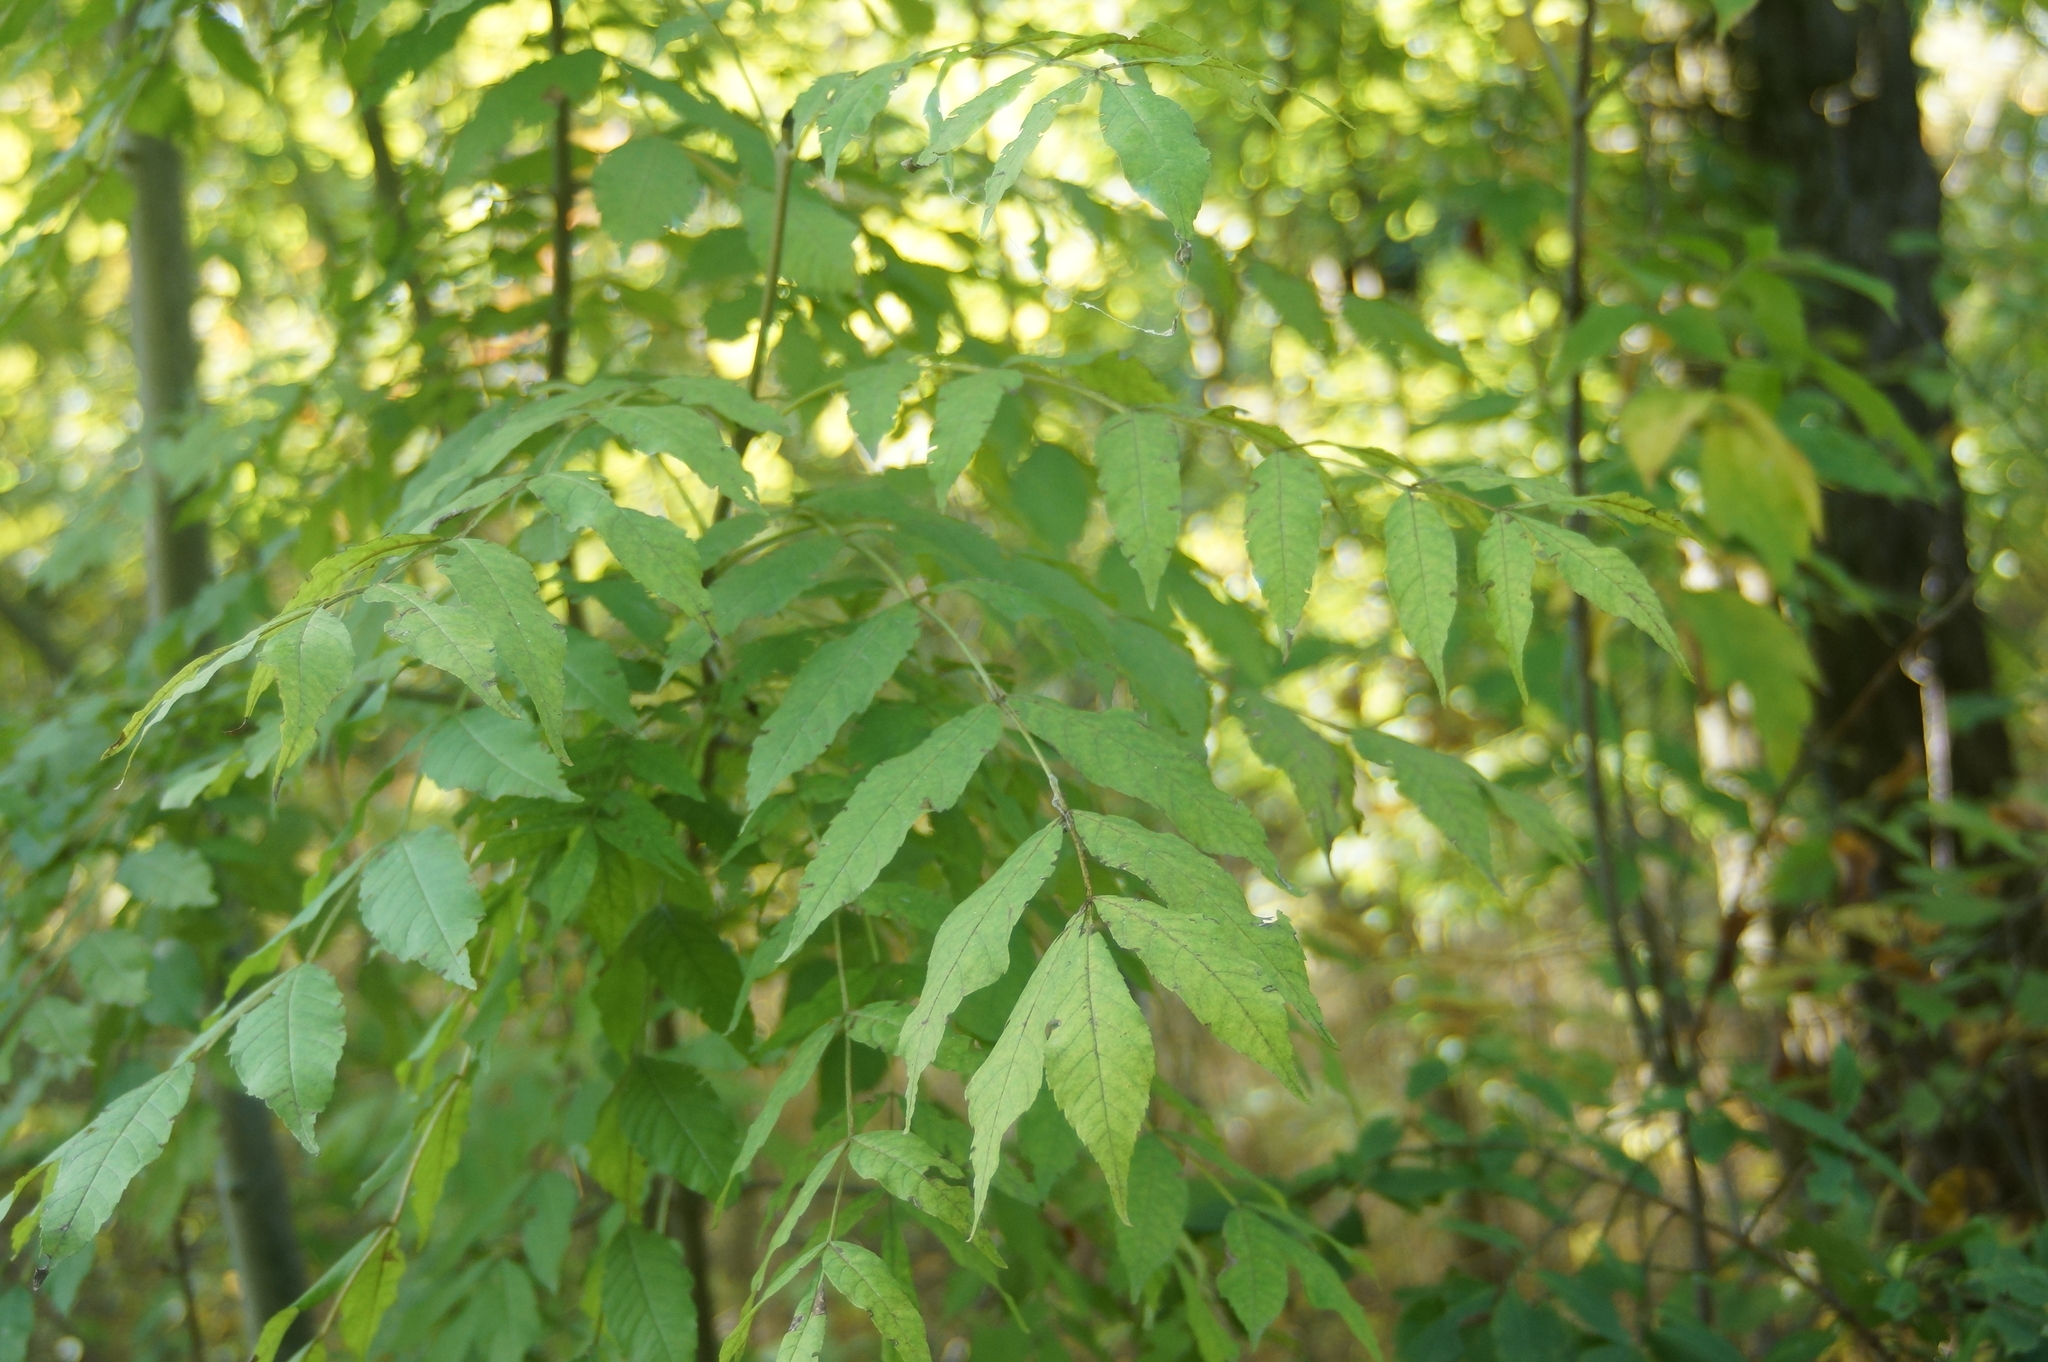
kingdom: Plantae
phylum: Tracheophyta
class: Magnoliopsida
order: Lamiales
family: Oleaceae
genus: Fraxinus
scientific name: Fraxinus excelsior
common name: European ash
